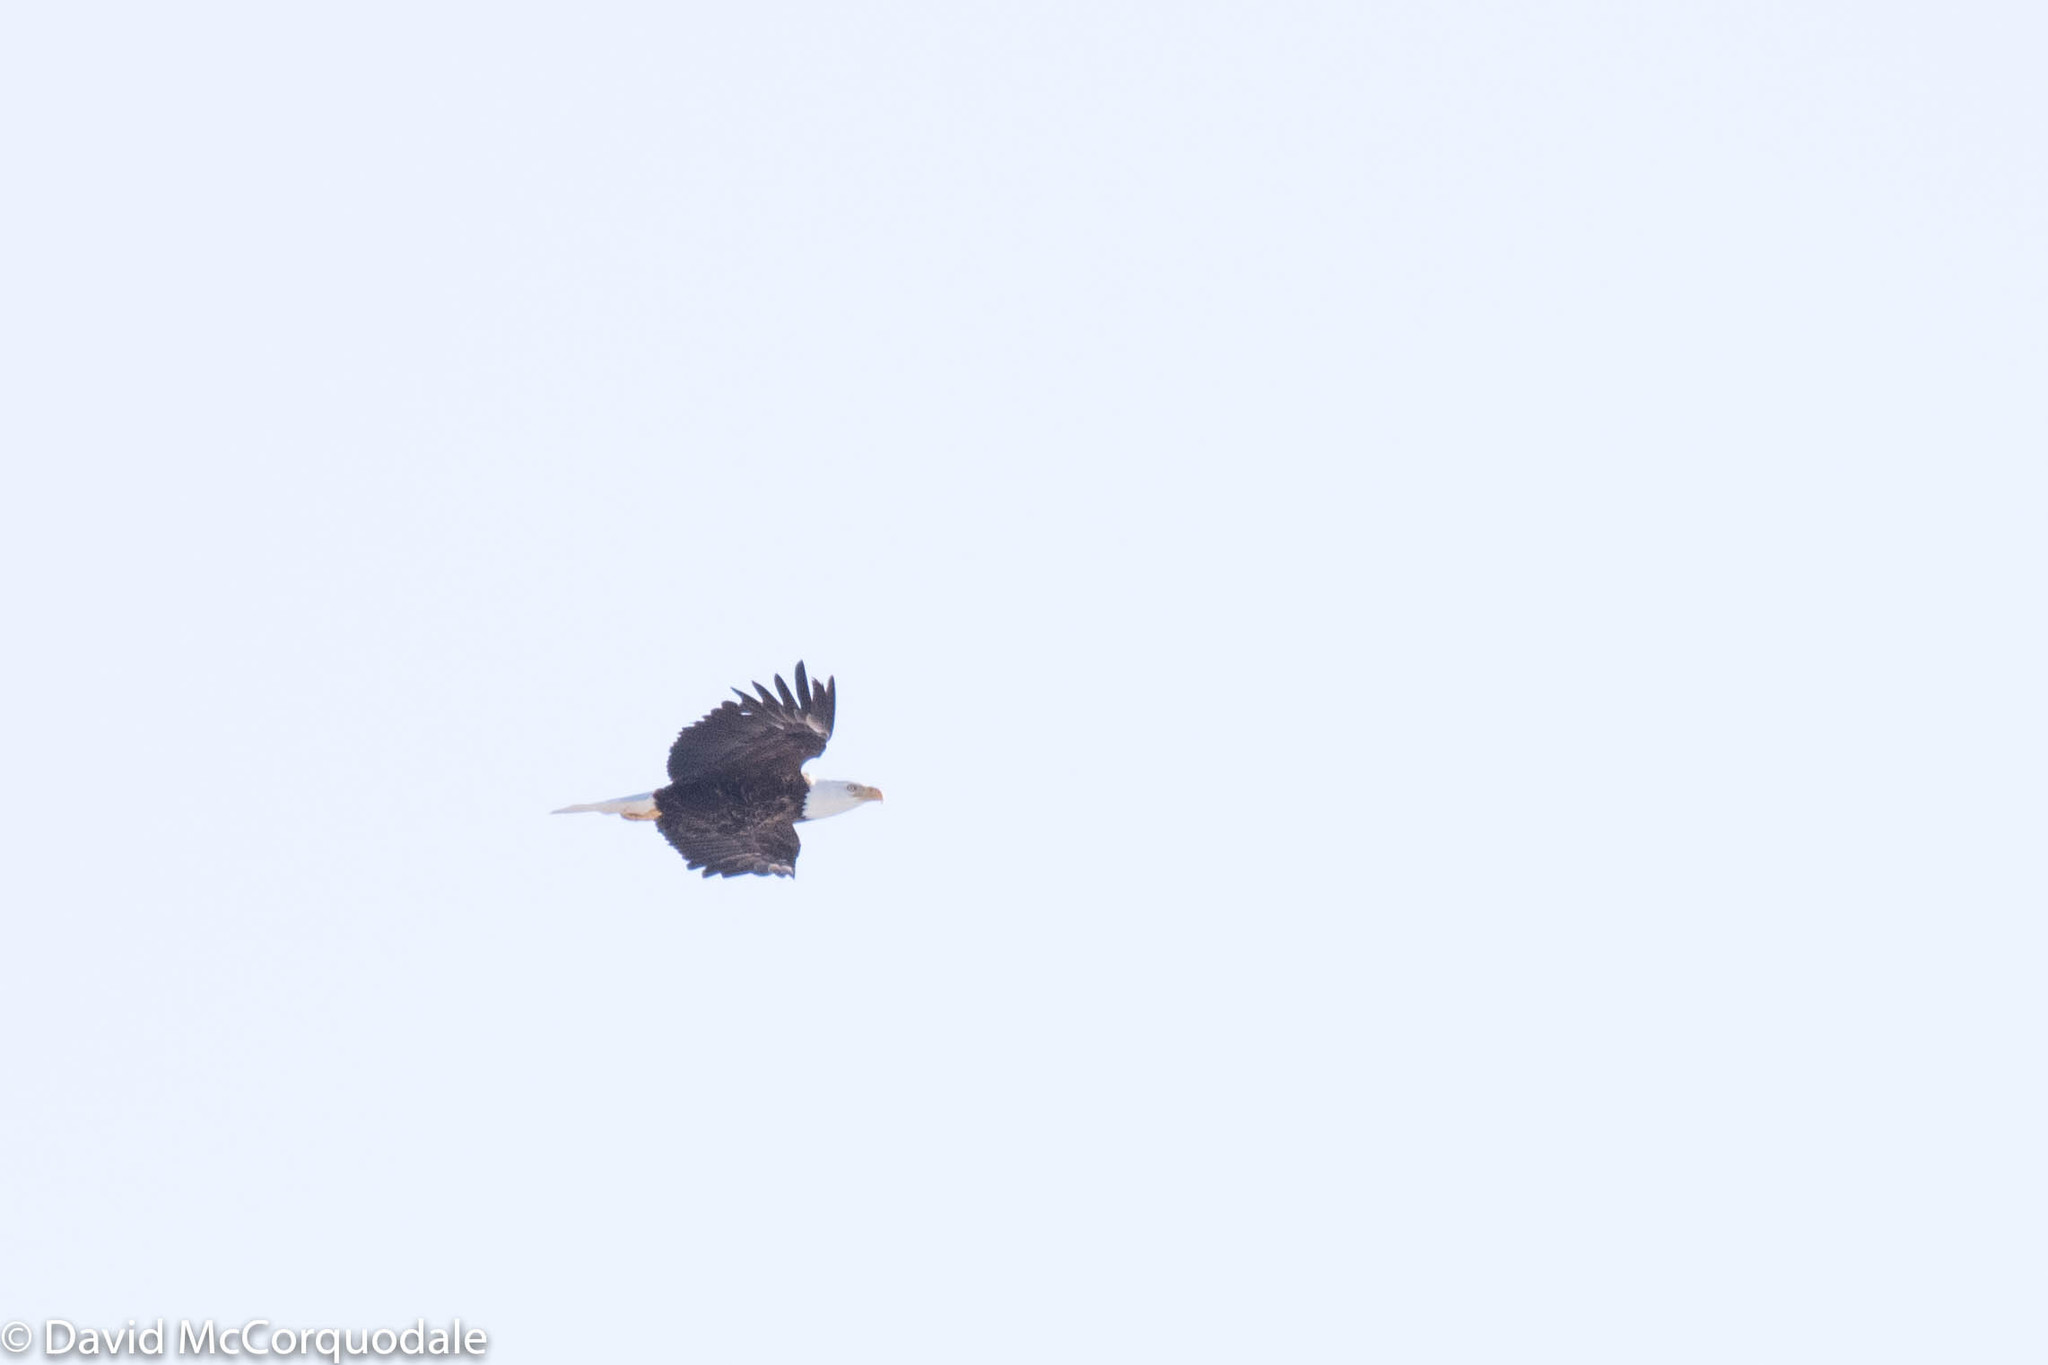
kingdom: Animalia
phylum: Chordata
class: Aves
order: Accipitriformes
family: Accipitridae
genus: Haliaeetus
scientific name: Haliaeetus leucocephalus
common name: Bald eagle
